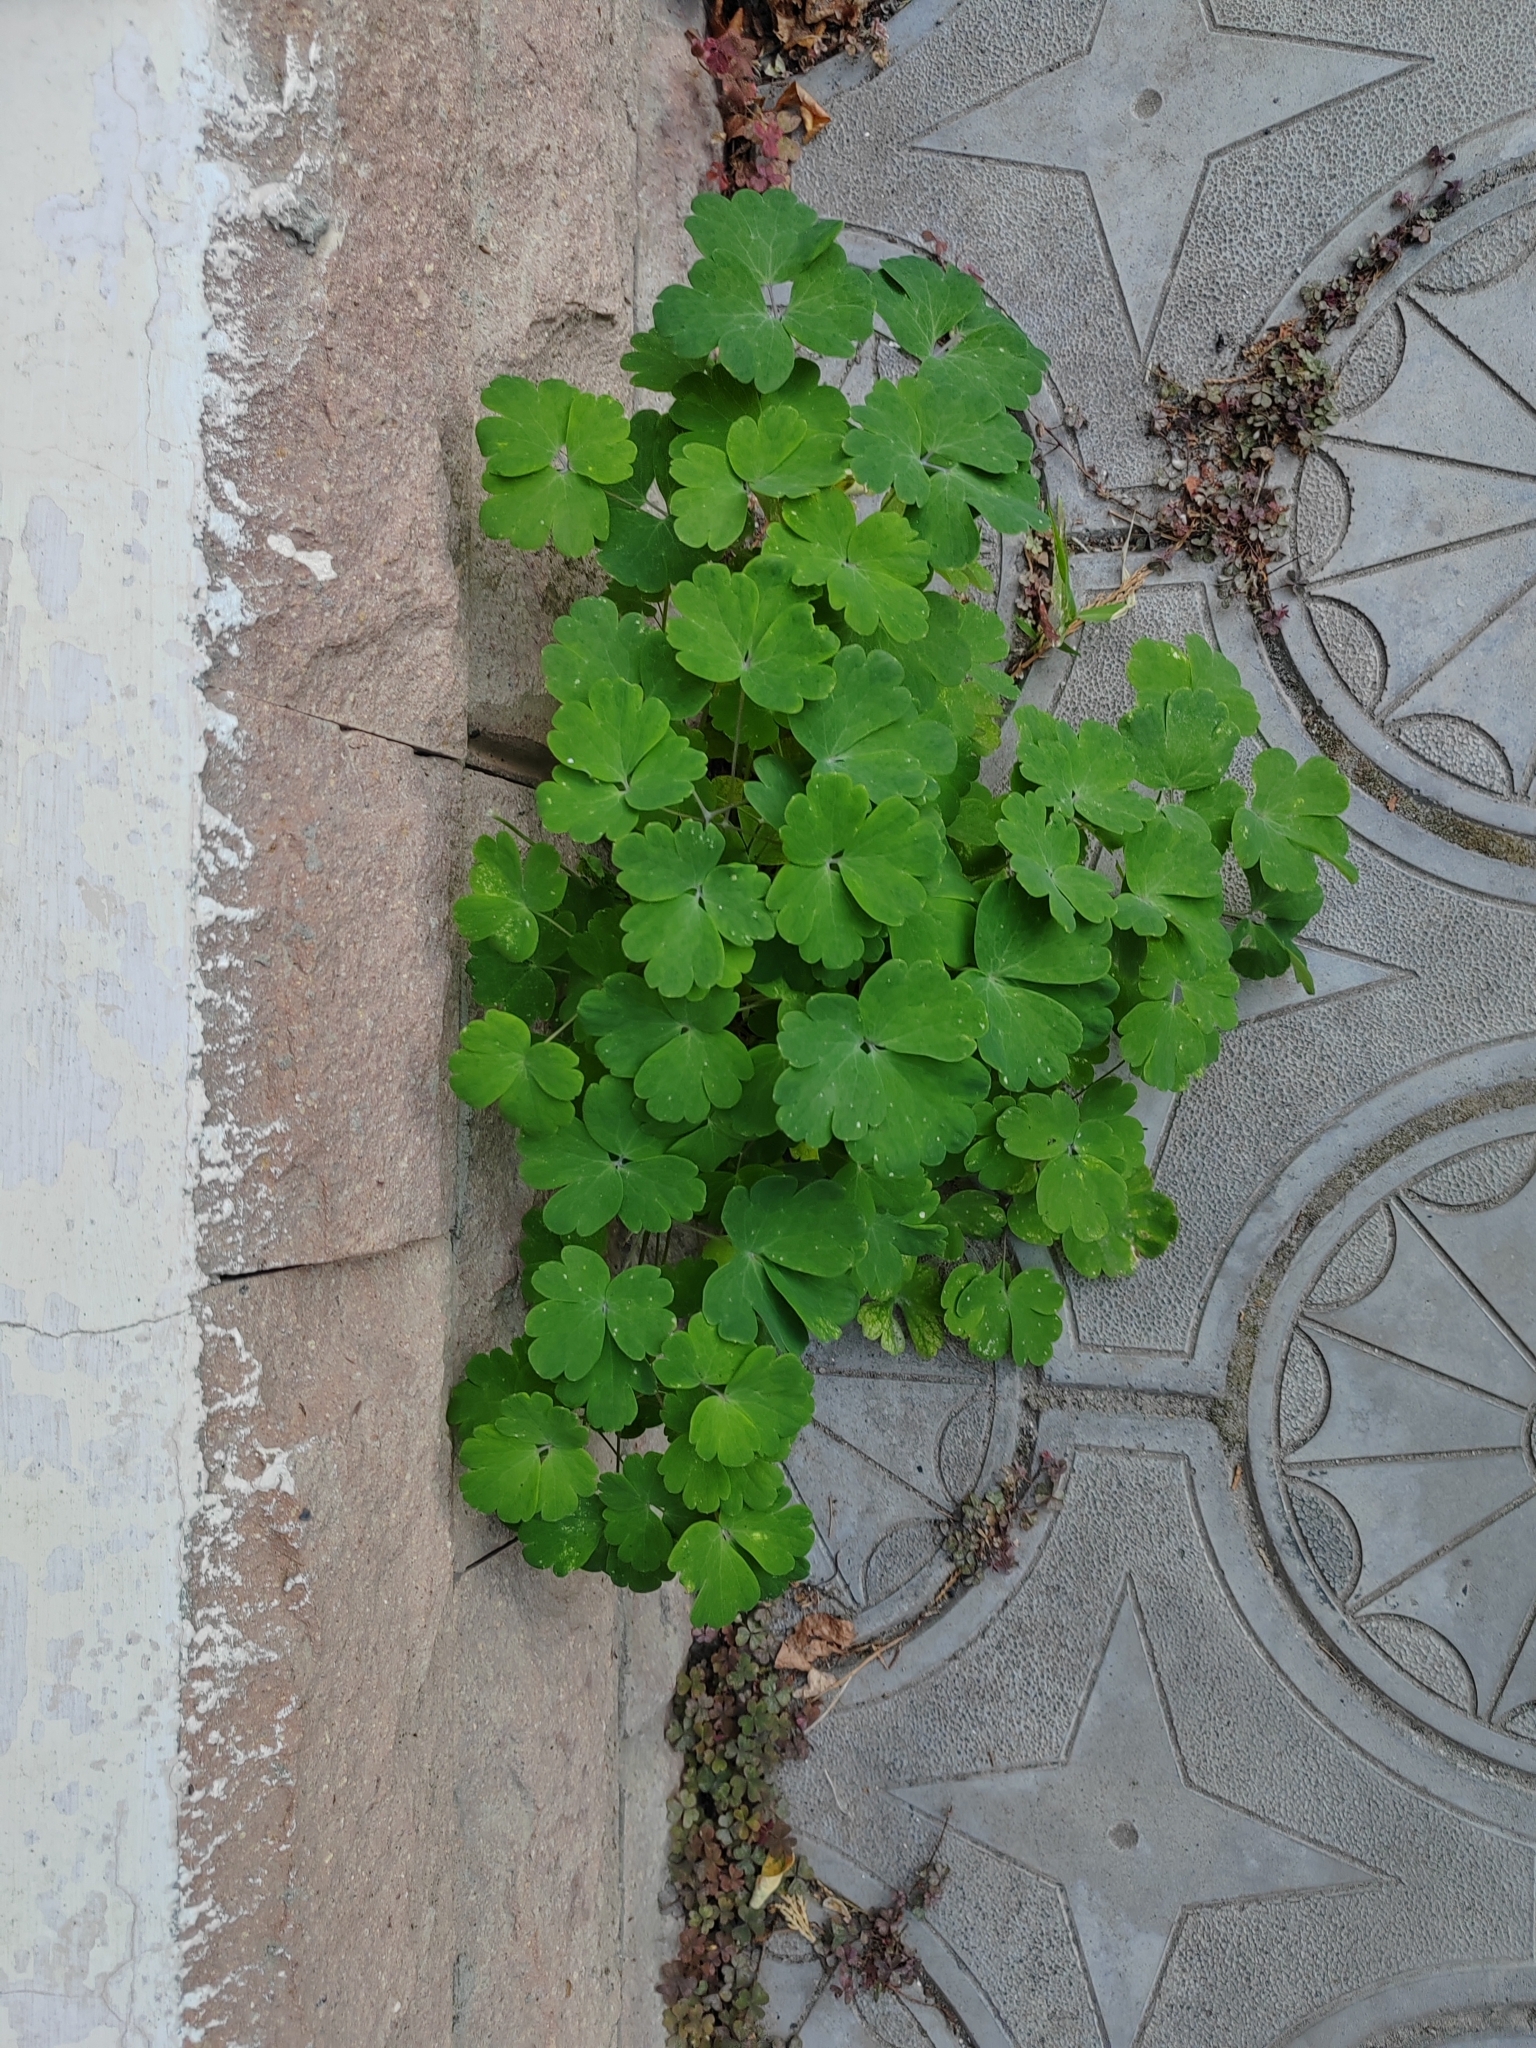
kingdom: Plantae
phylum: Tracheophyta
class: Magnoliopsida
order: Ranunculales
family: Ranunculaceae
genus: Aquilegia
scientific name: Aquilegia vulgaris
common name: Columbine
